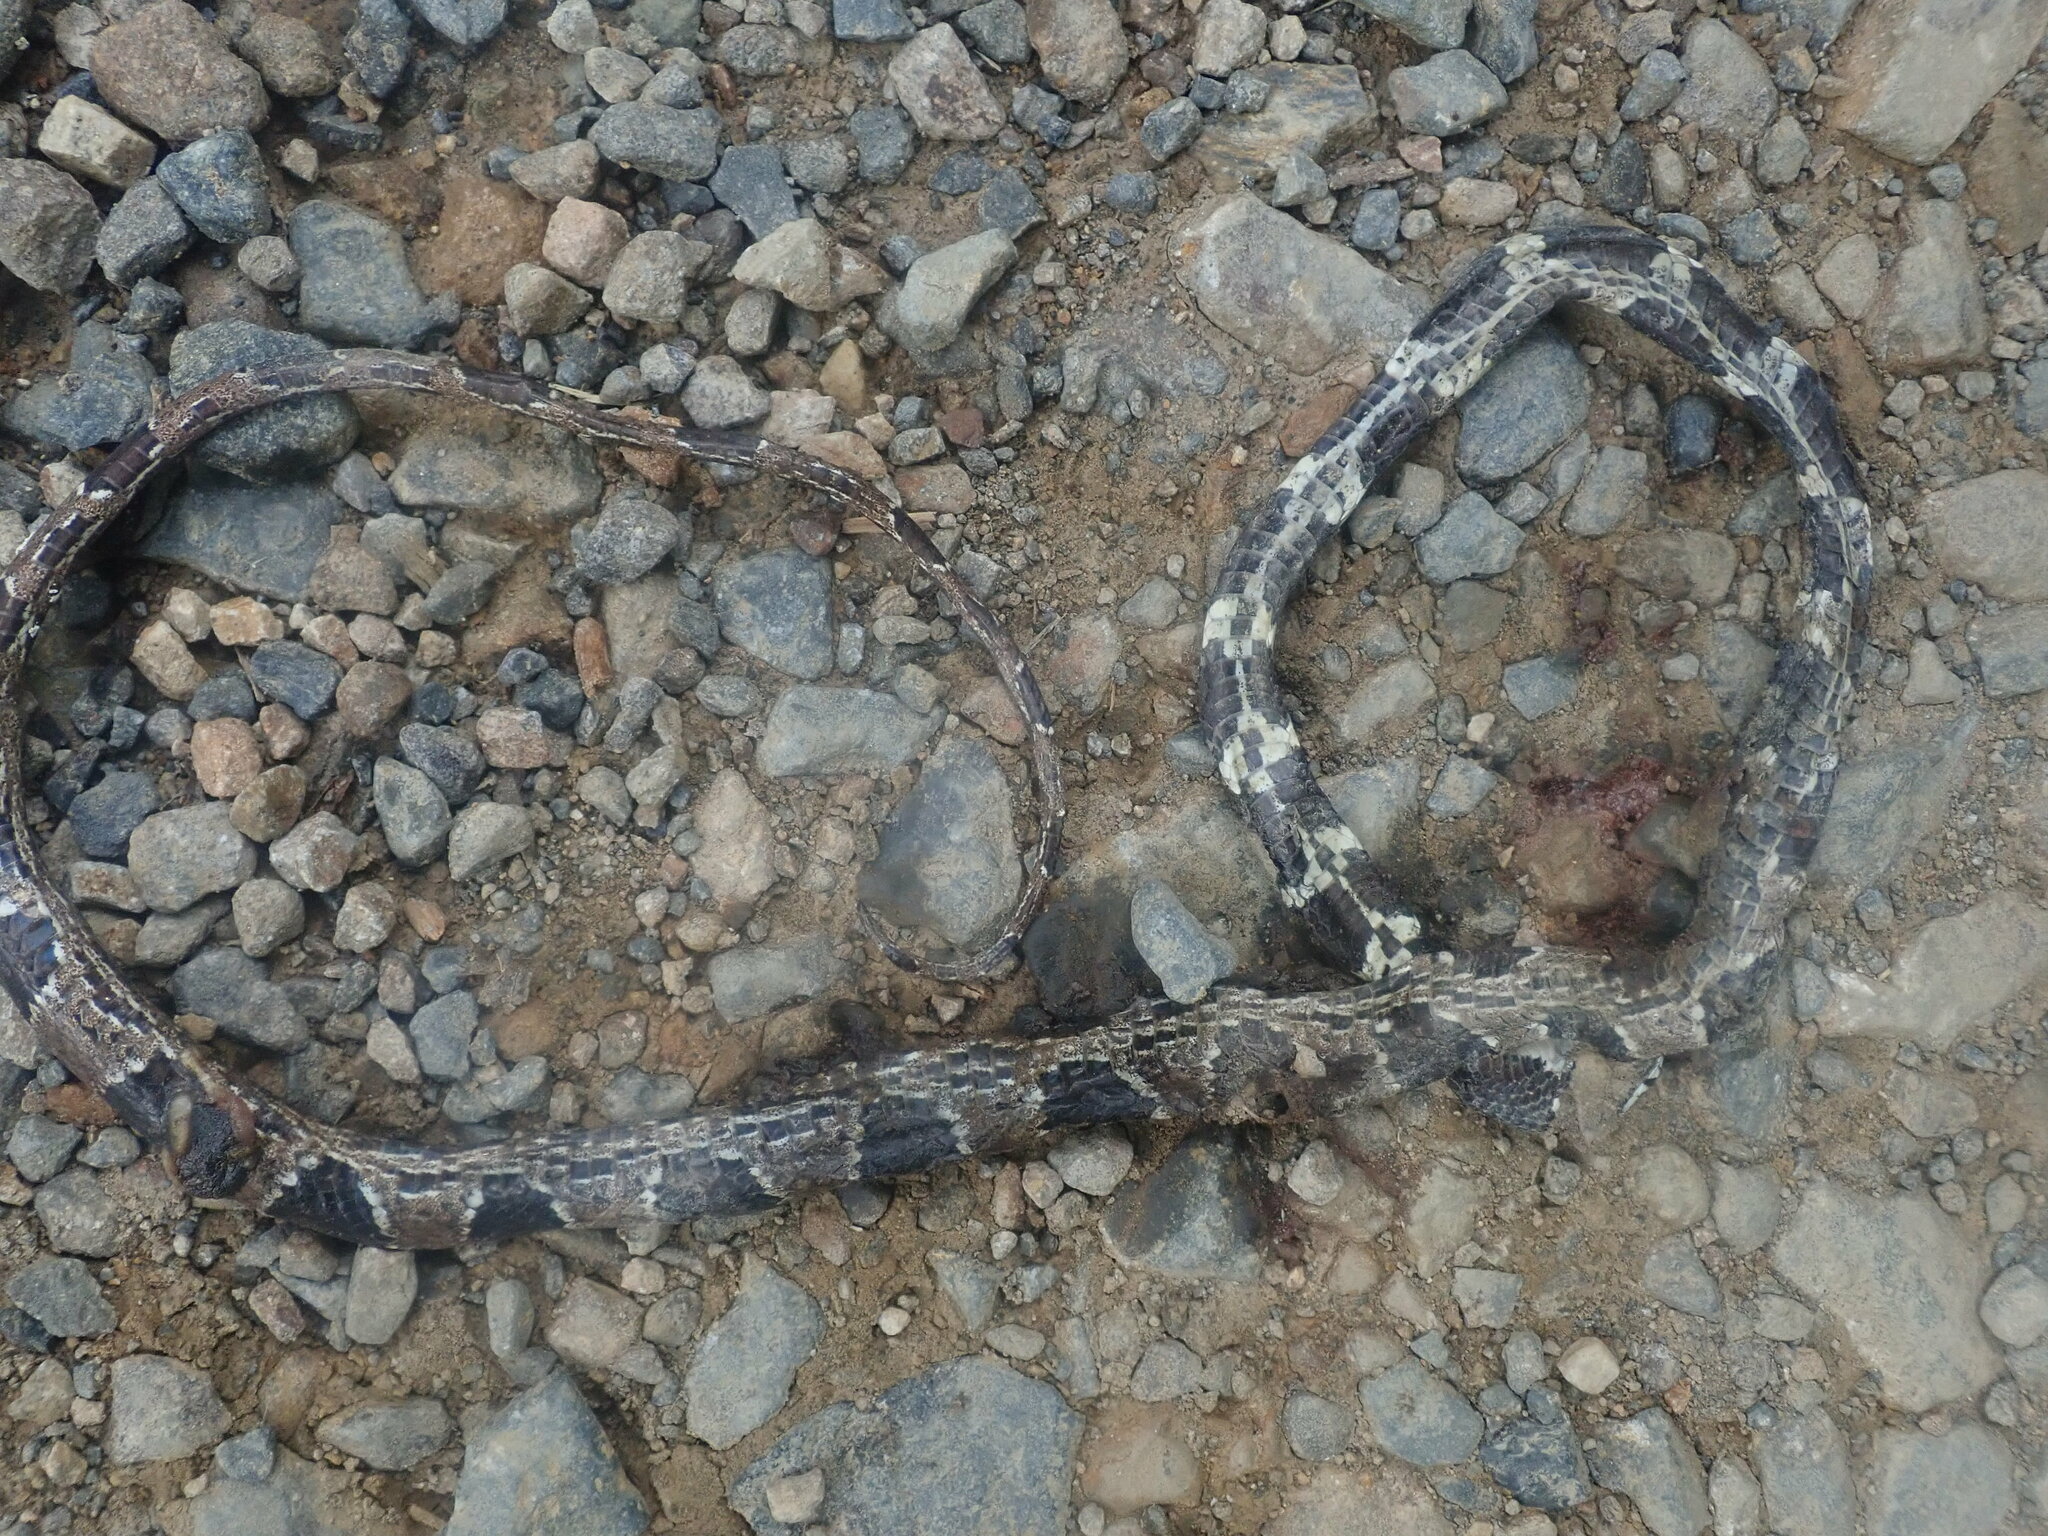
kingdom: Animalia
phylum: Chordata
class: Squamata
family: Colubridae
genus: Dipsas
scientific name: Dipsas catesbyi
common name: Catesby's snail-eater
